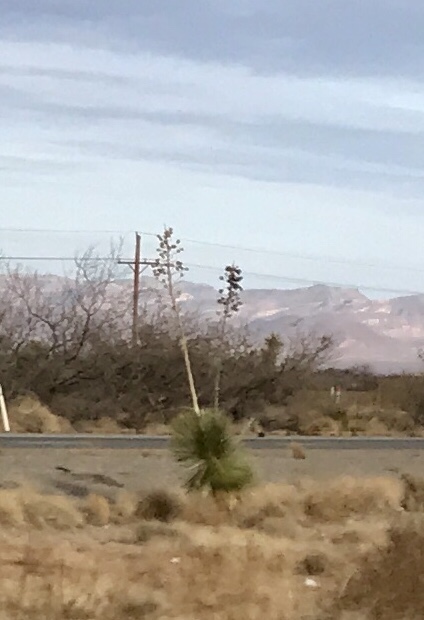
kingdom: Plantae
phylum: Tracheophyta
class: Liliopsida
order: Asparagales
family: Asparagaceae
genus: Yucca
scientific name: Yucca elata
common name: Palmella
